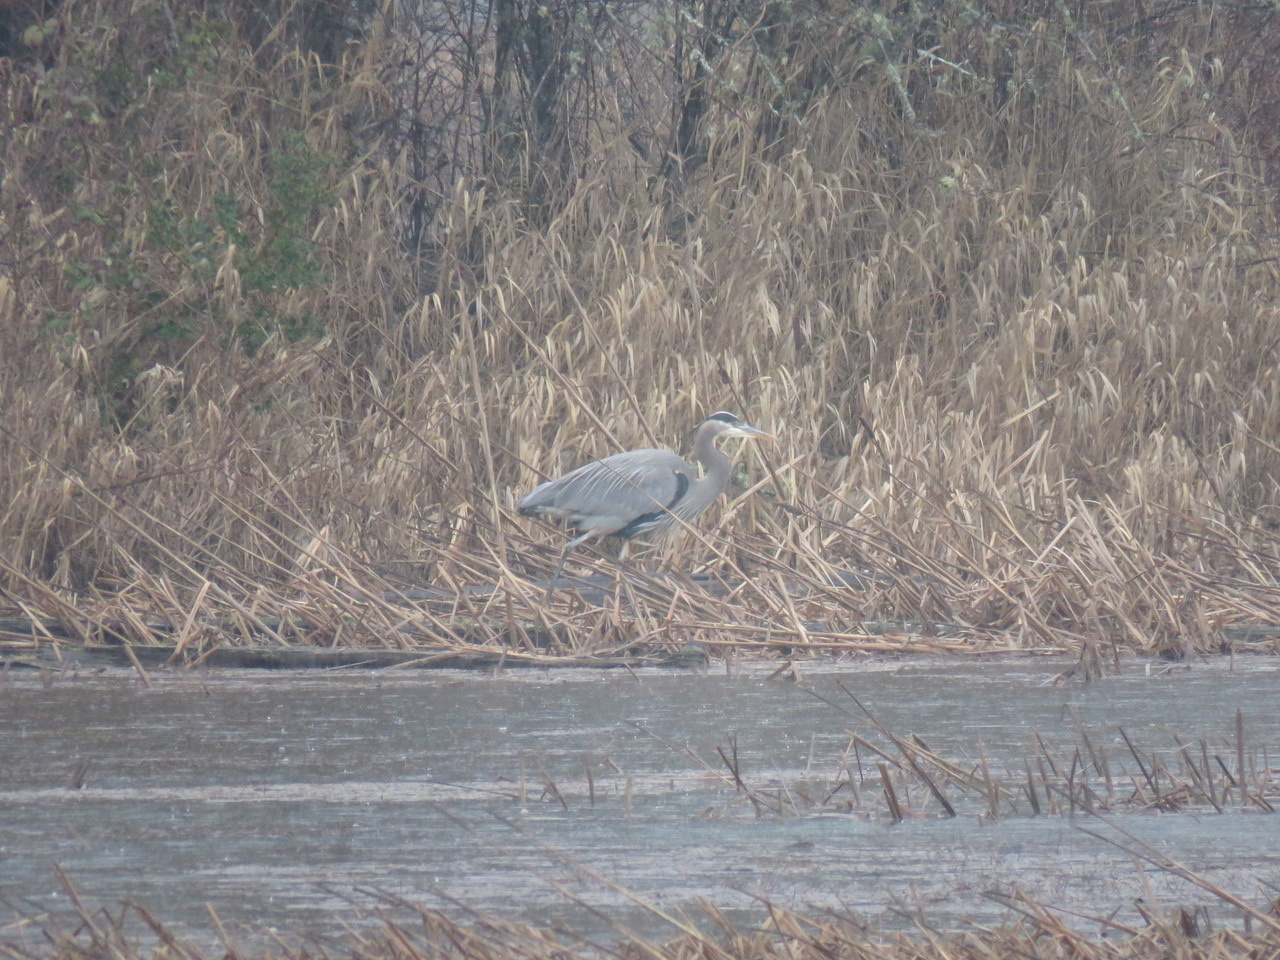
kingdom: Animalia
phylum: Chordata
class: Aves
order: Pelecaniformes
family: Ardeidae
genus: Ardea
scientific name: Ardea herodias
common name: Great blue heron
